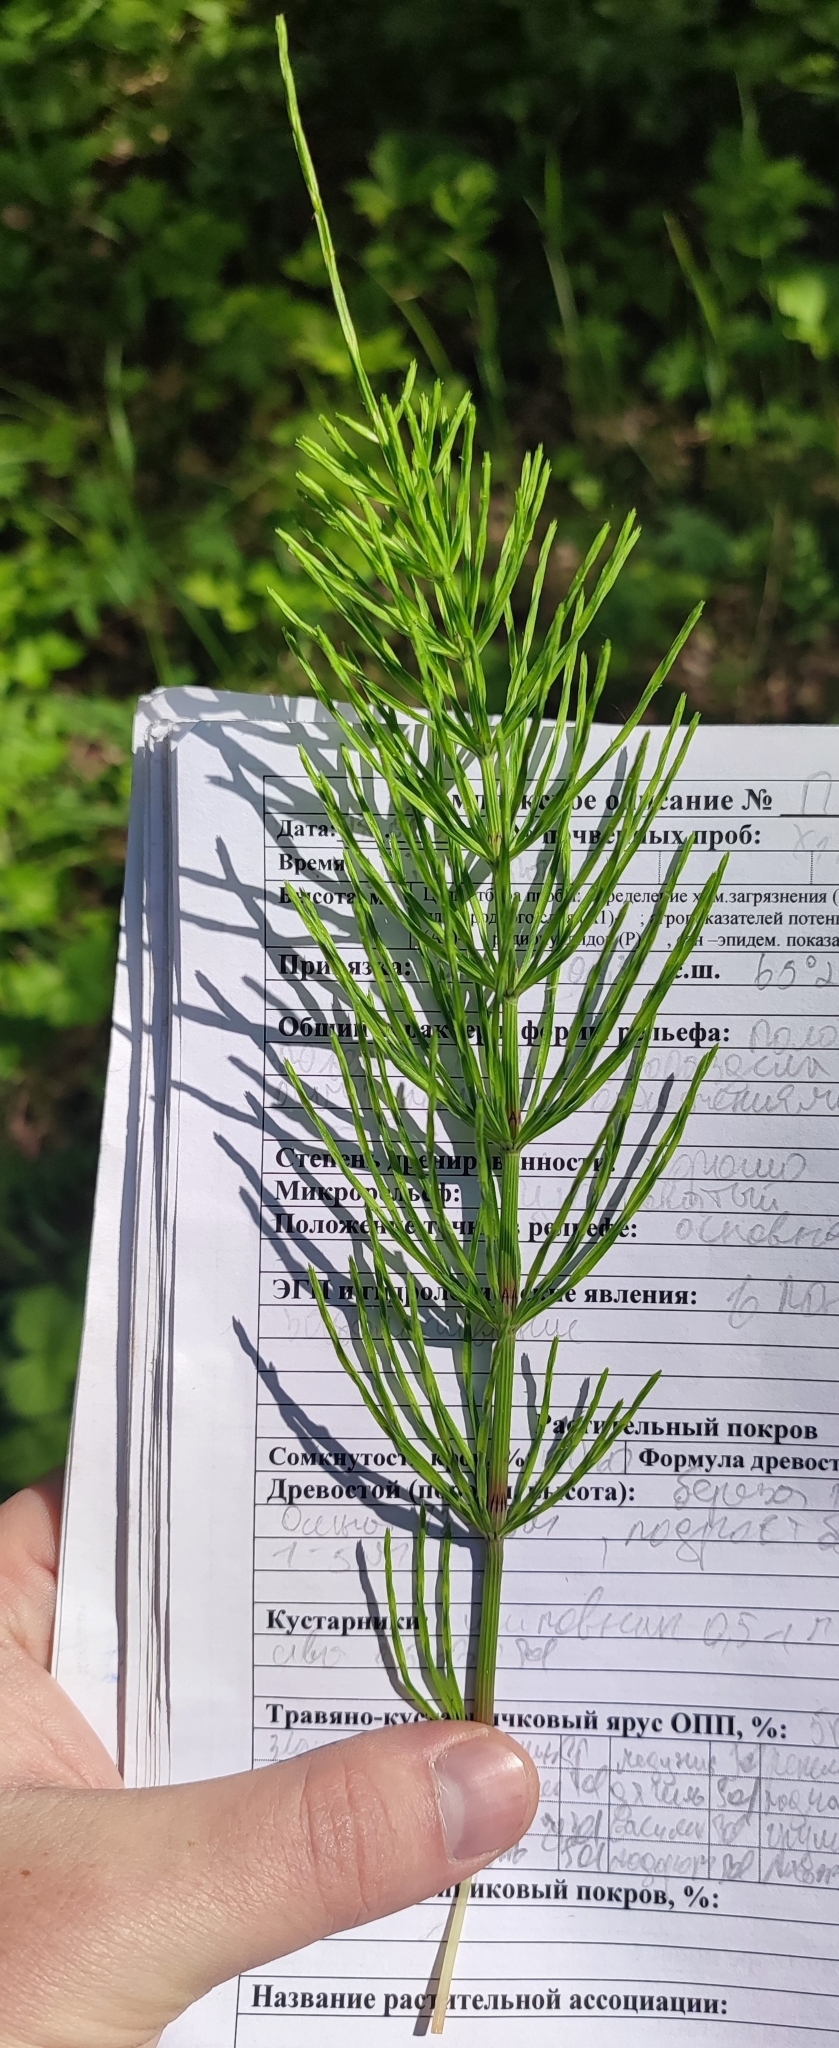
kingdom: Plantae
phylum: Tracheophyta
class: Polypodiopsida
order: Equisetales
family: Equisetaceae
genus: Equisetum
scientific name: Equisetum arvense
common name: Field horsetail
